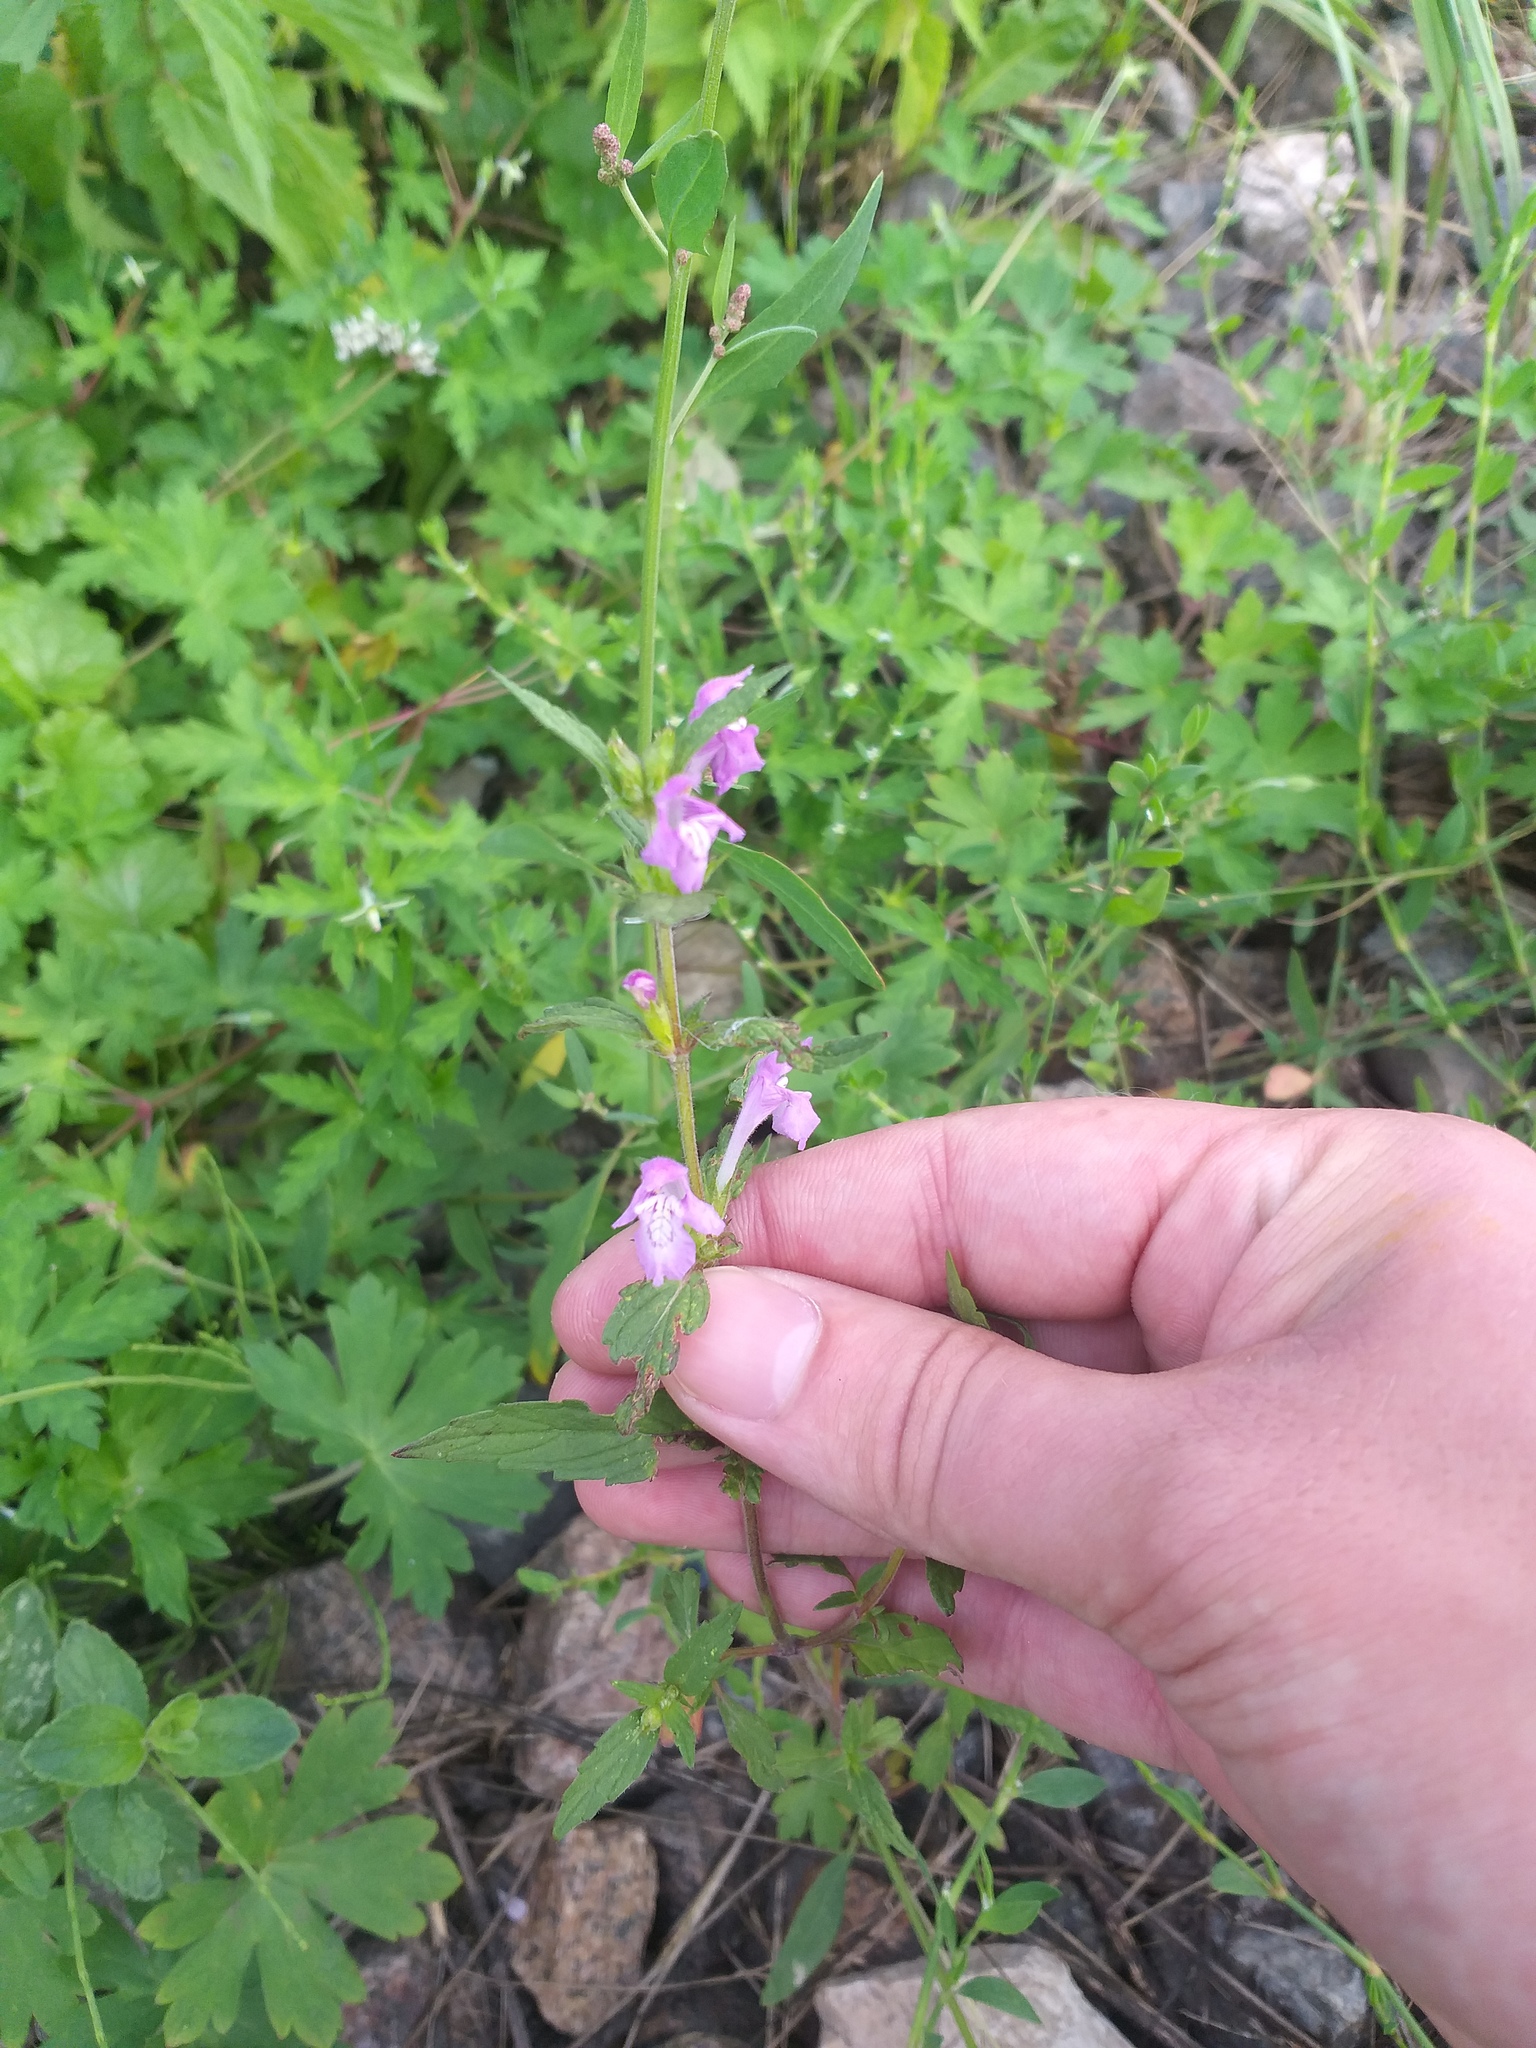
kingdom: Plantae
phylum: Tracheophyta
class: Magnoliopsida
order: Lamiales
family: Lamiaceae
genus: Galeopsis
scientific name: Galeopsis ladanum
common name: Broad-leaved hemp-nettle
